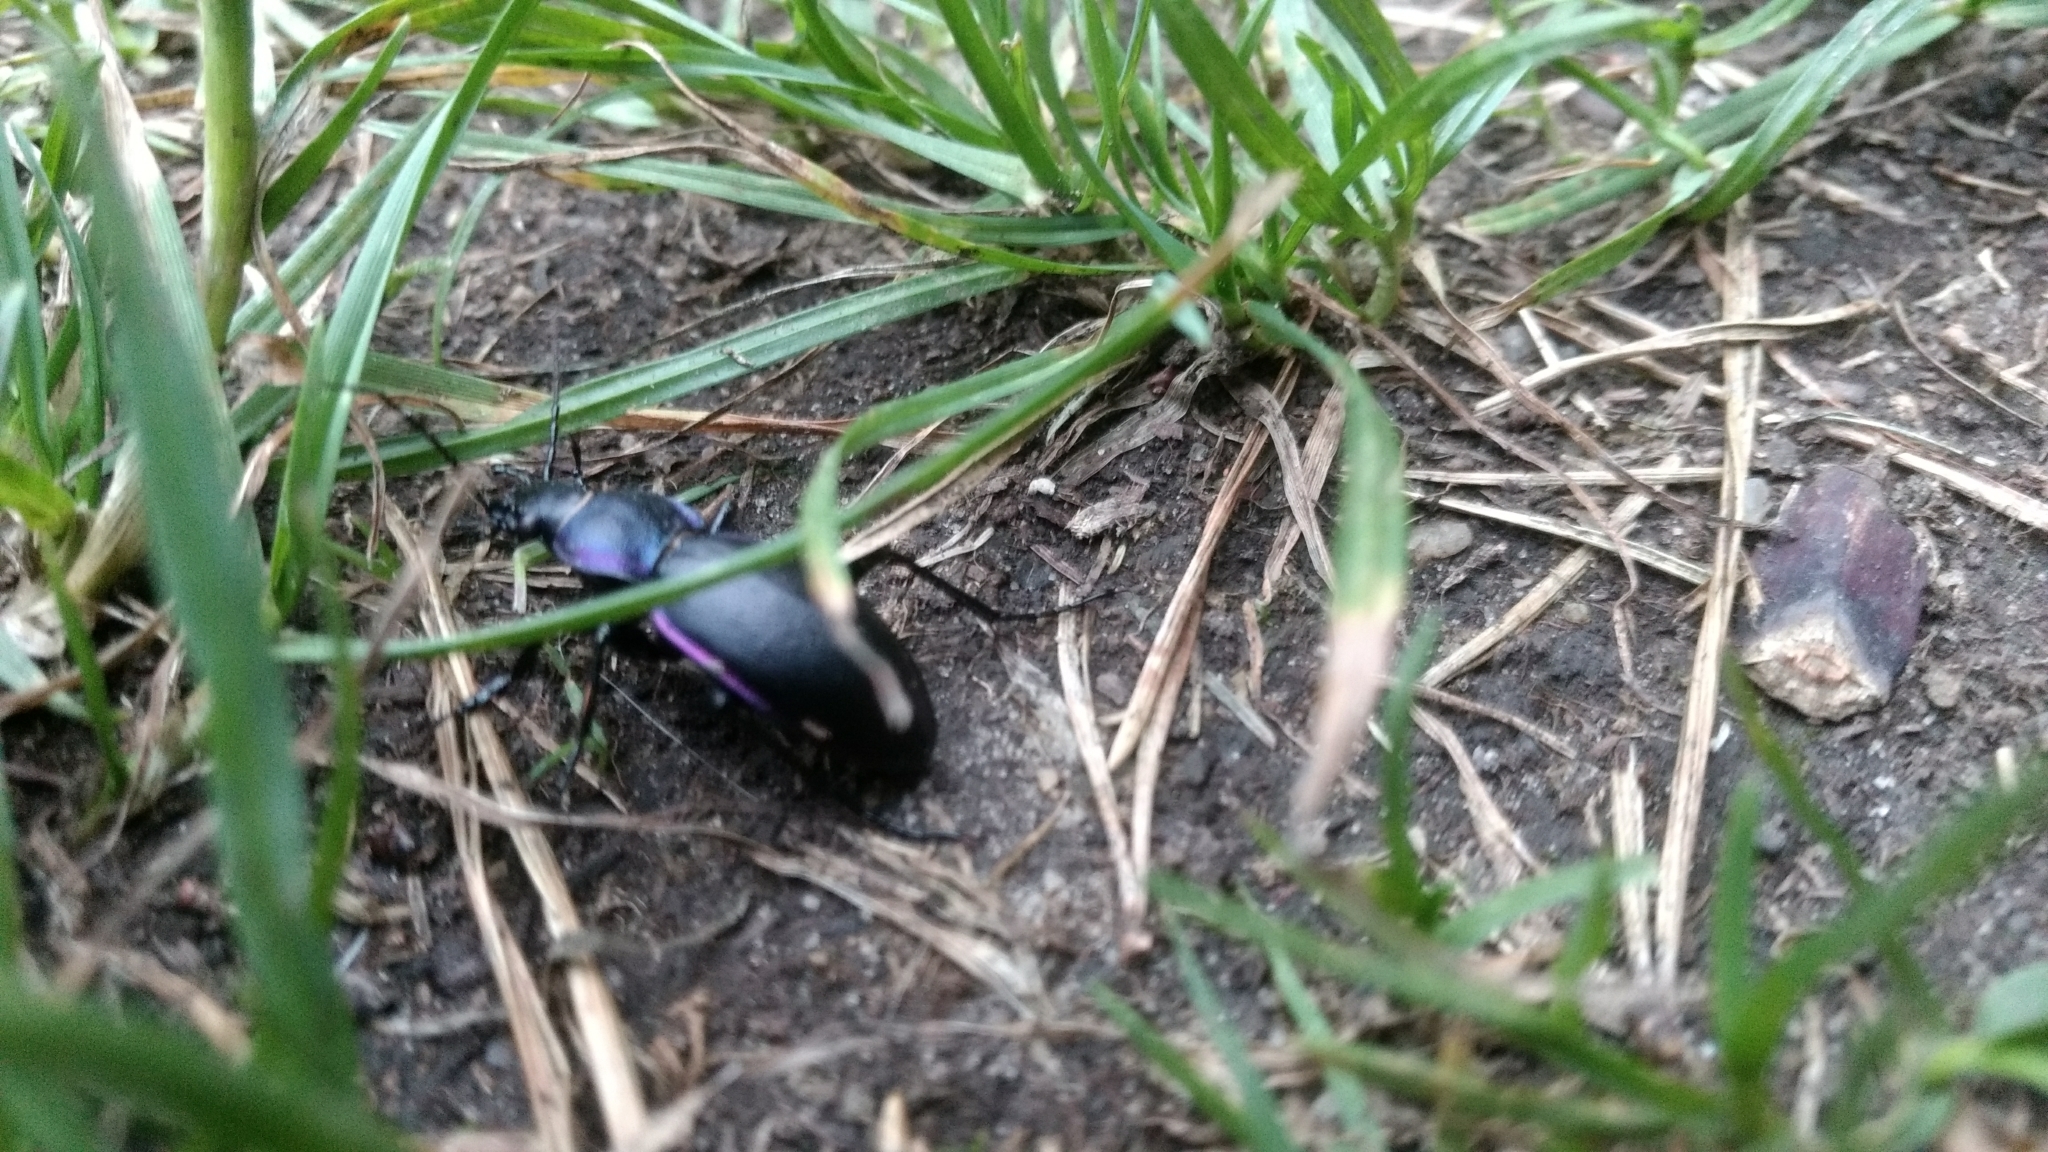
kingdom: Animalia
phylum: Arthropoda
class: Insecta
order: Coleoptera
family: Carabidae
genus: Carabus
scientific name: Carabus violaceus
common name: Violet ground beetle
